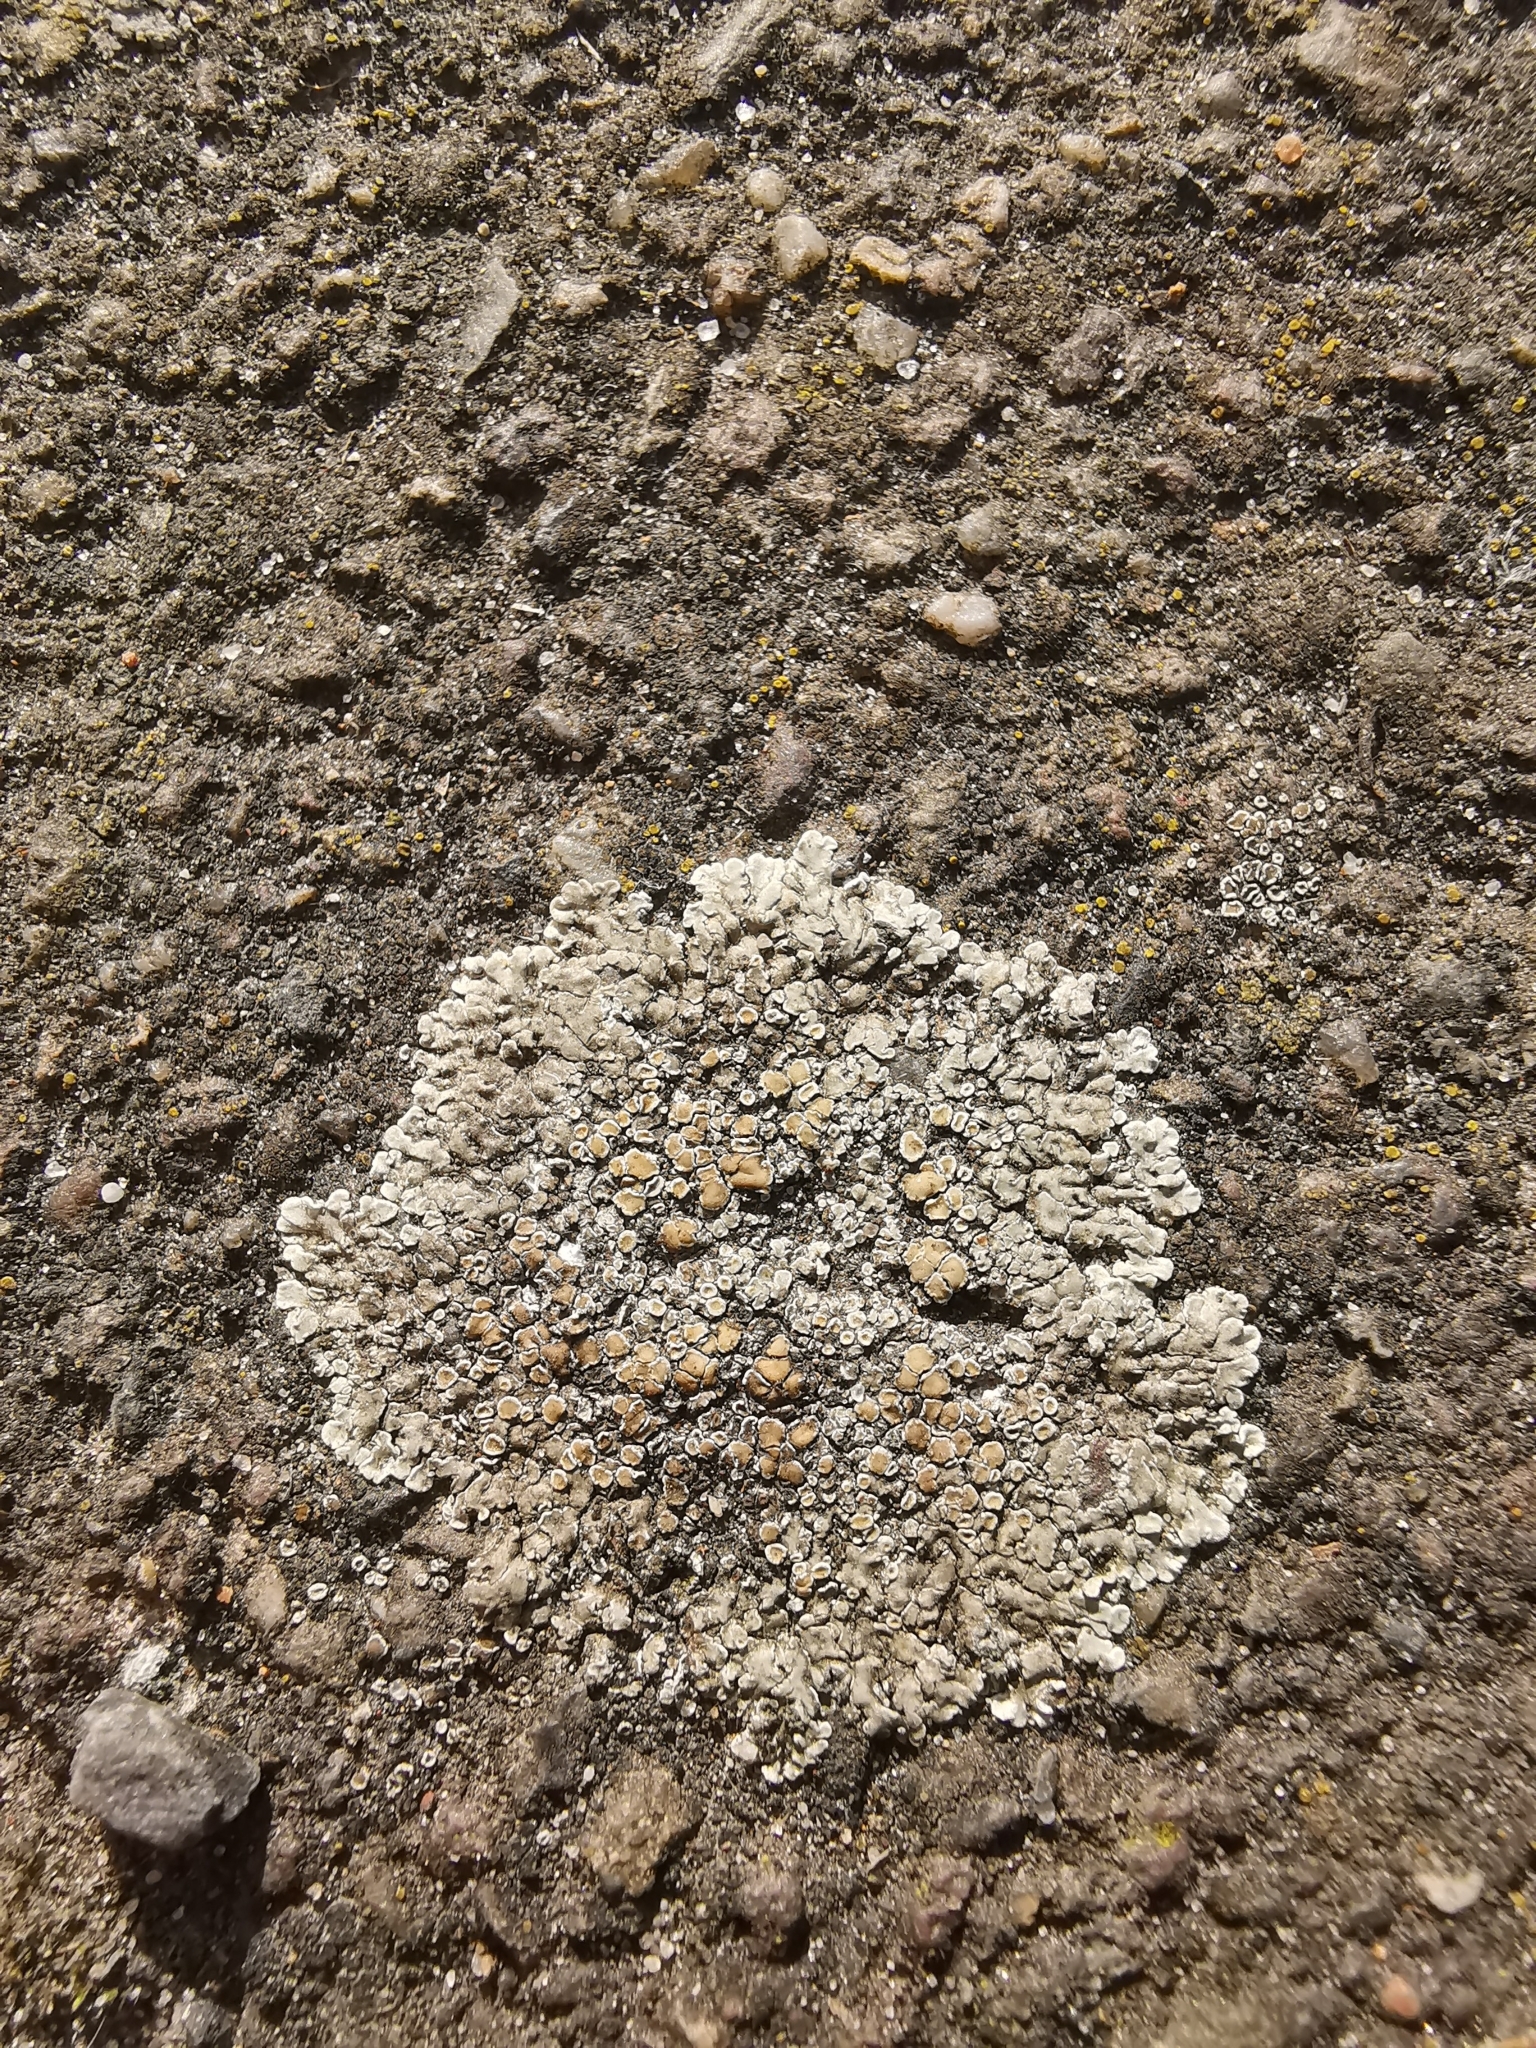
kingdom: Fungi
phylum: Ascomycota
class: Lecanoromycetes
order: Lecanorales
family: Lecanoraceae
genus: Protoparmeliopsis
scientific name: Protoparmeliopsis muralis
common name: Stonewall rim lichen
